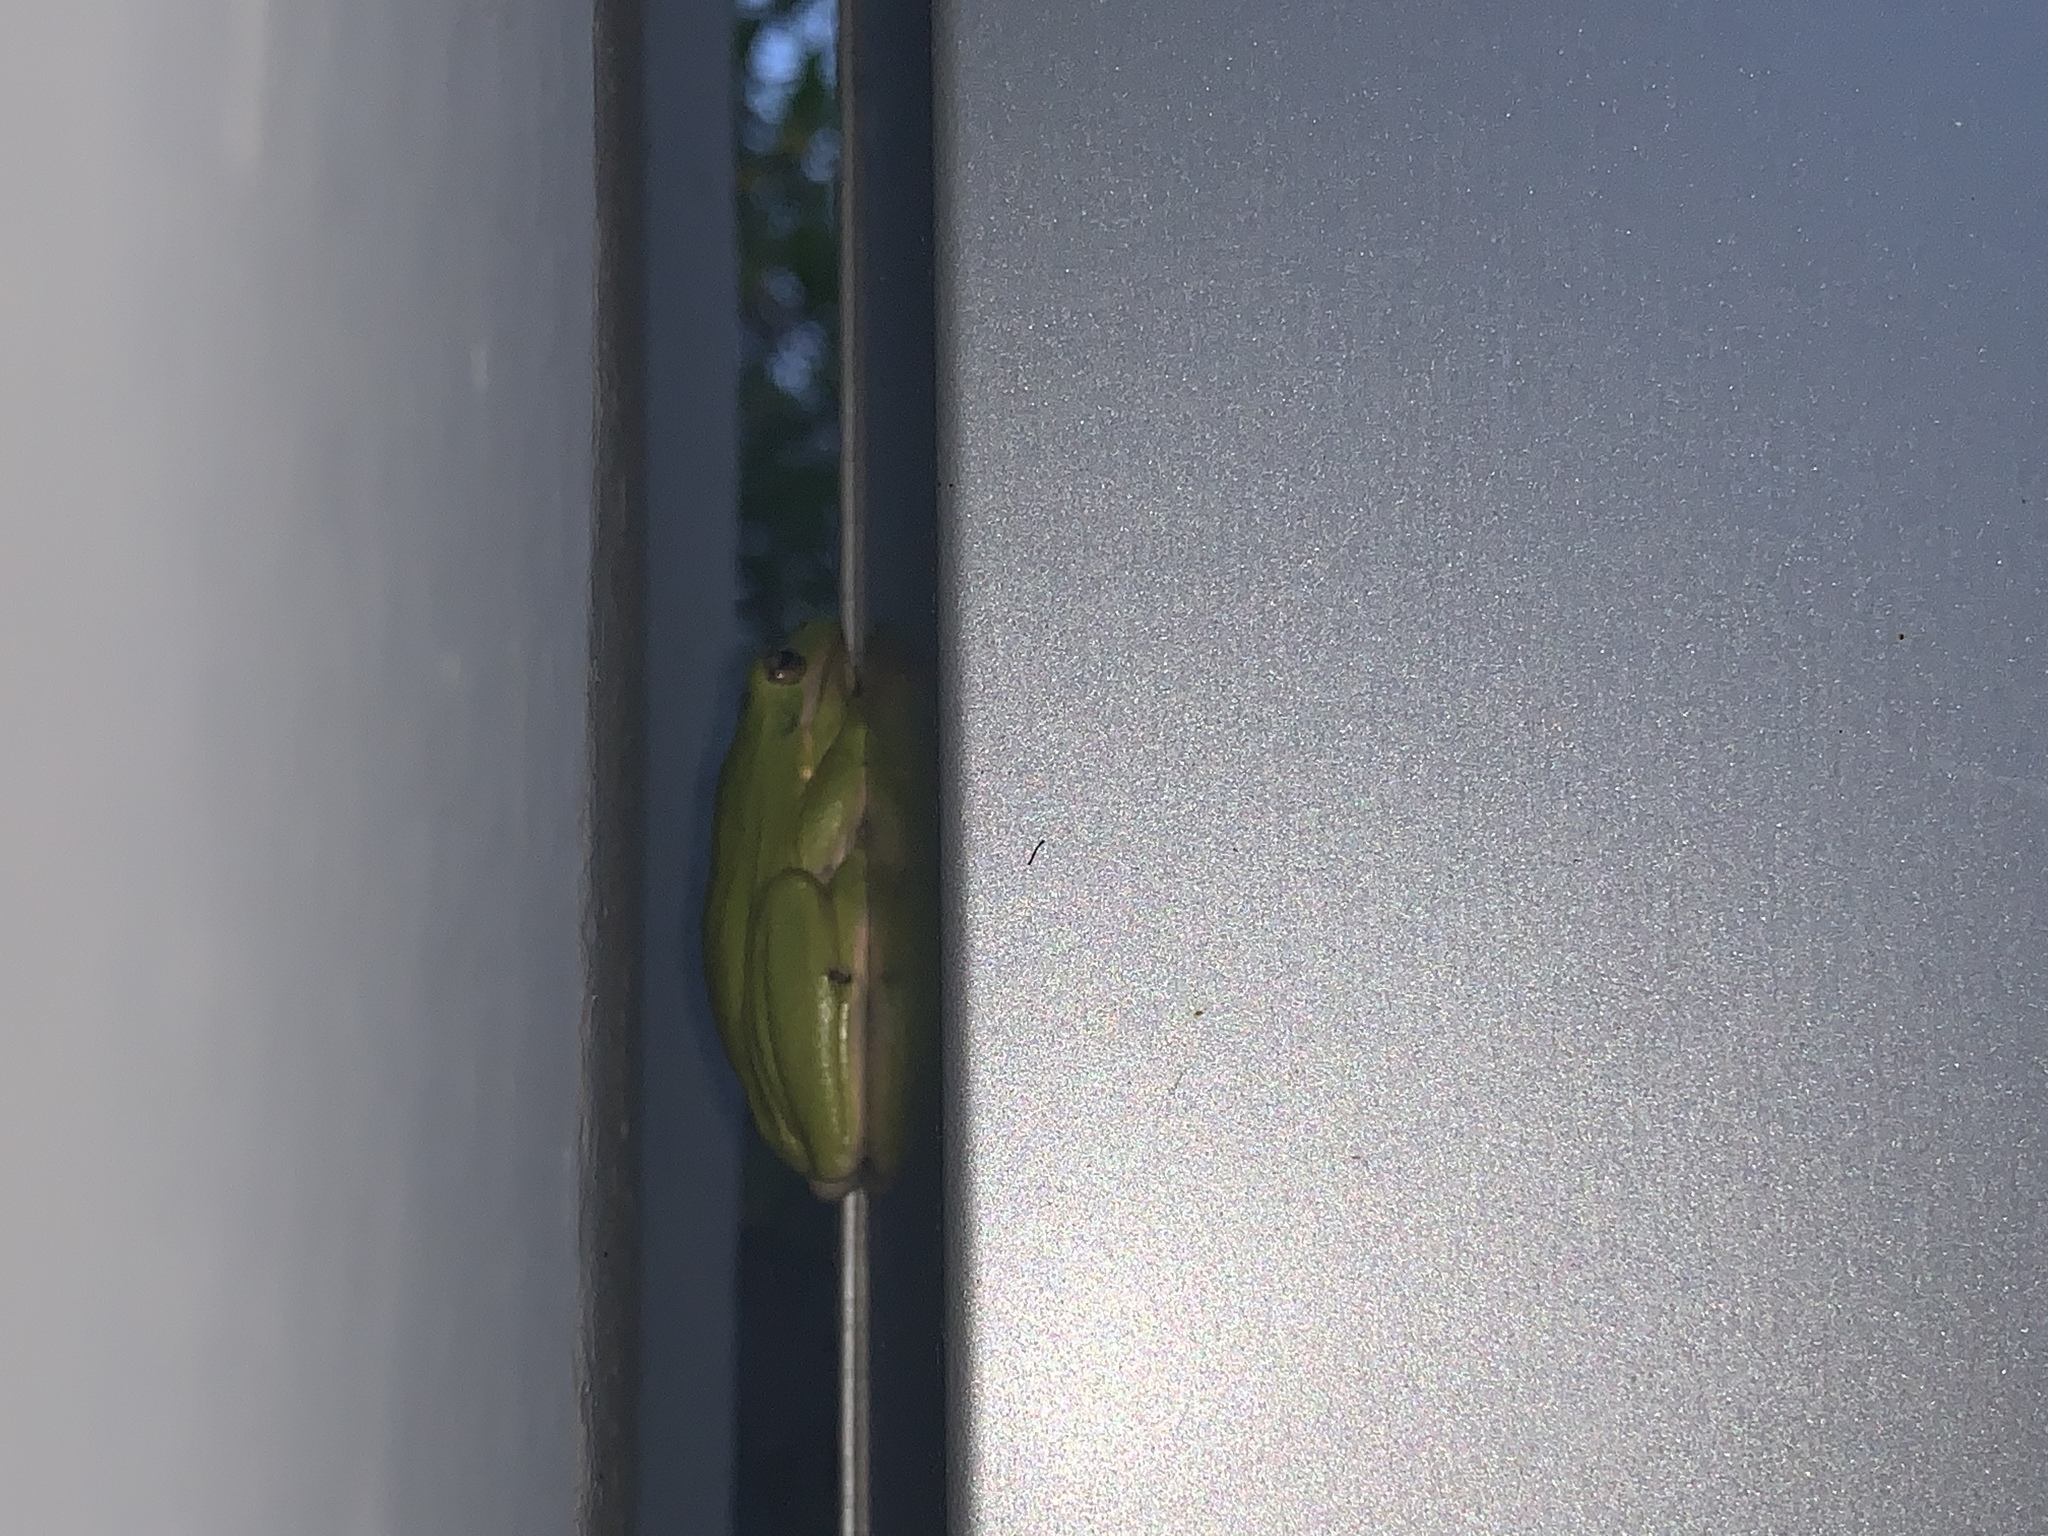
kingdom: Animalia
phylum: Chordata
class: Amphibia
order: Anura
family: Hylidae
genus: Dryophytes
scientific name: Dryophytes cinereus
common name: Green treefrog
